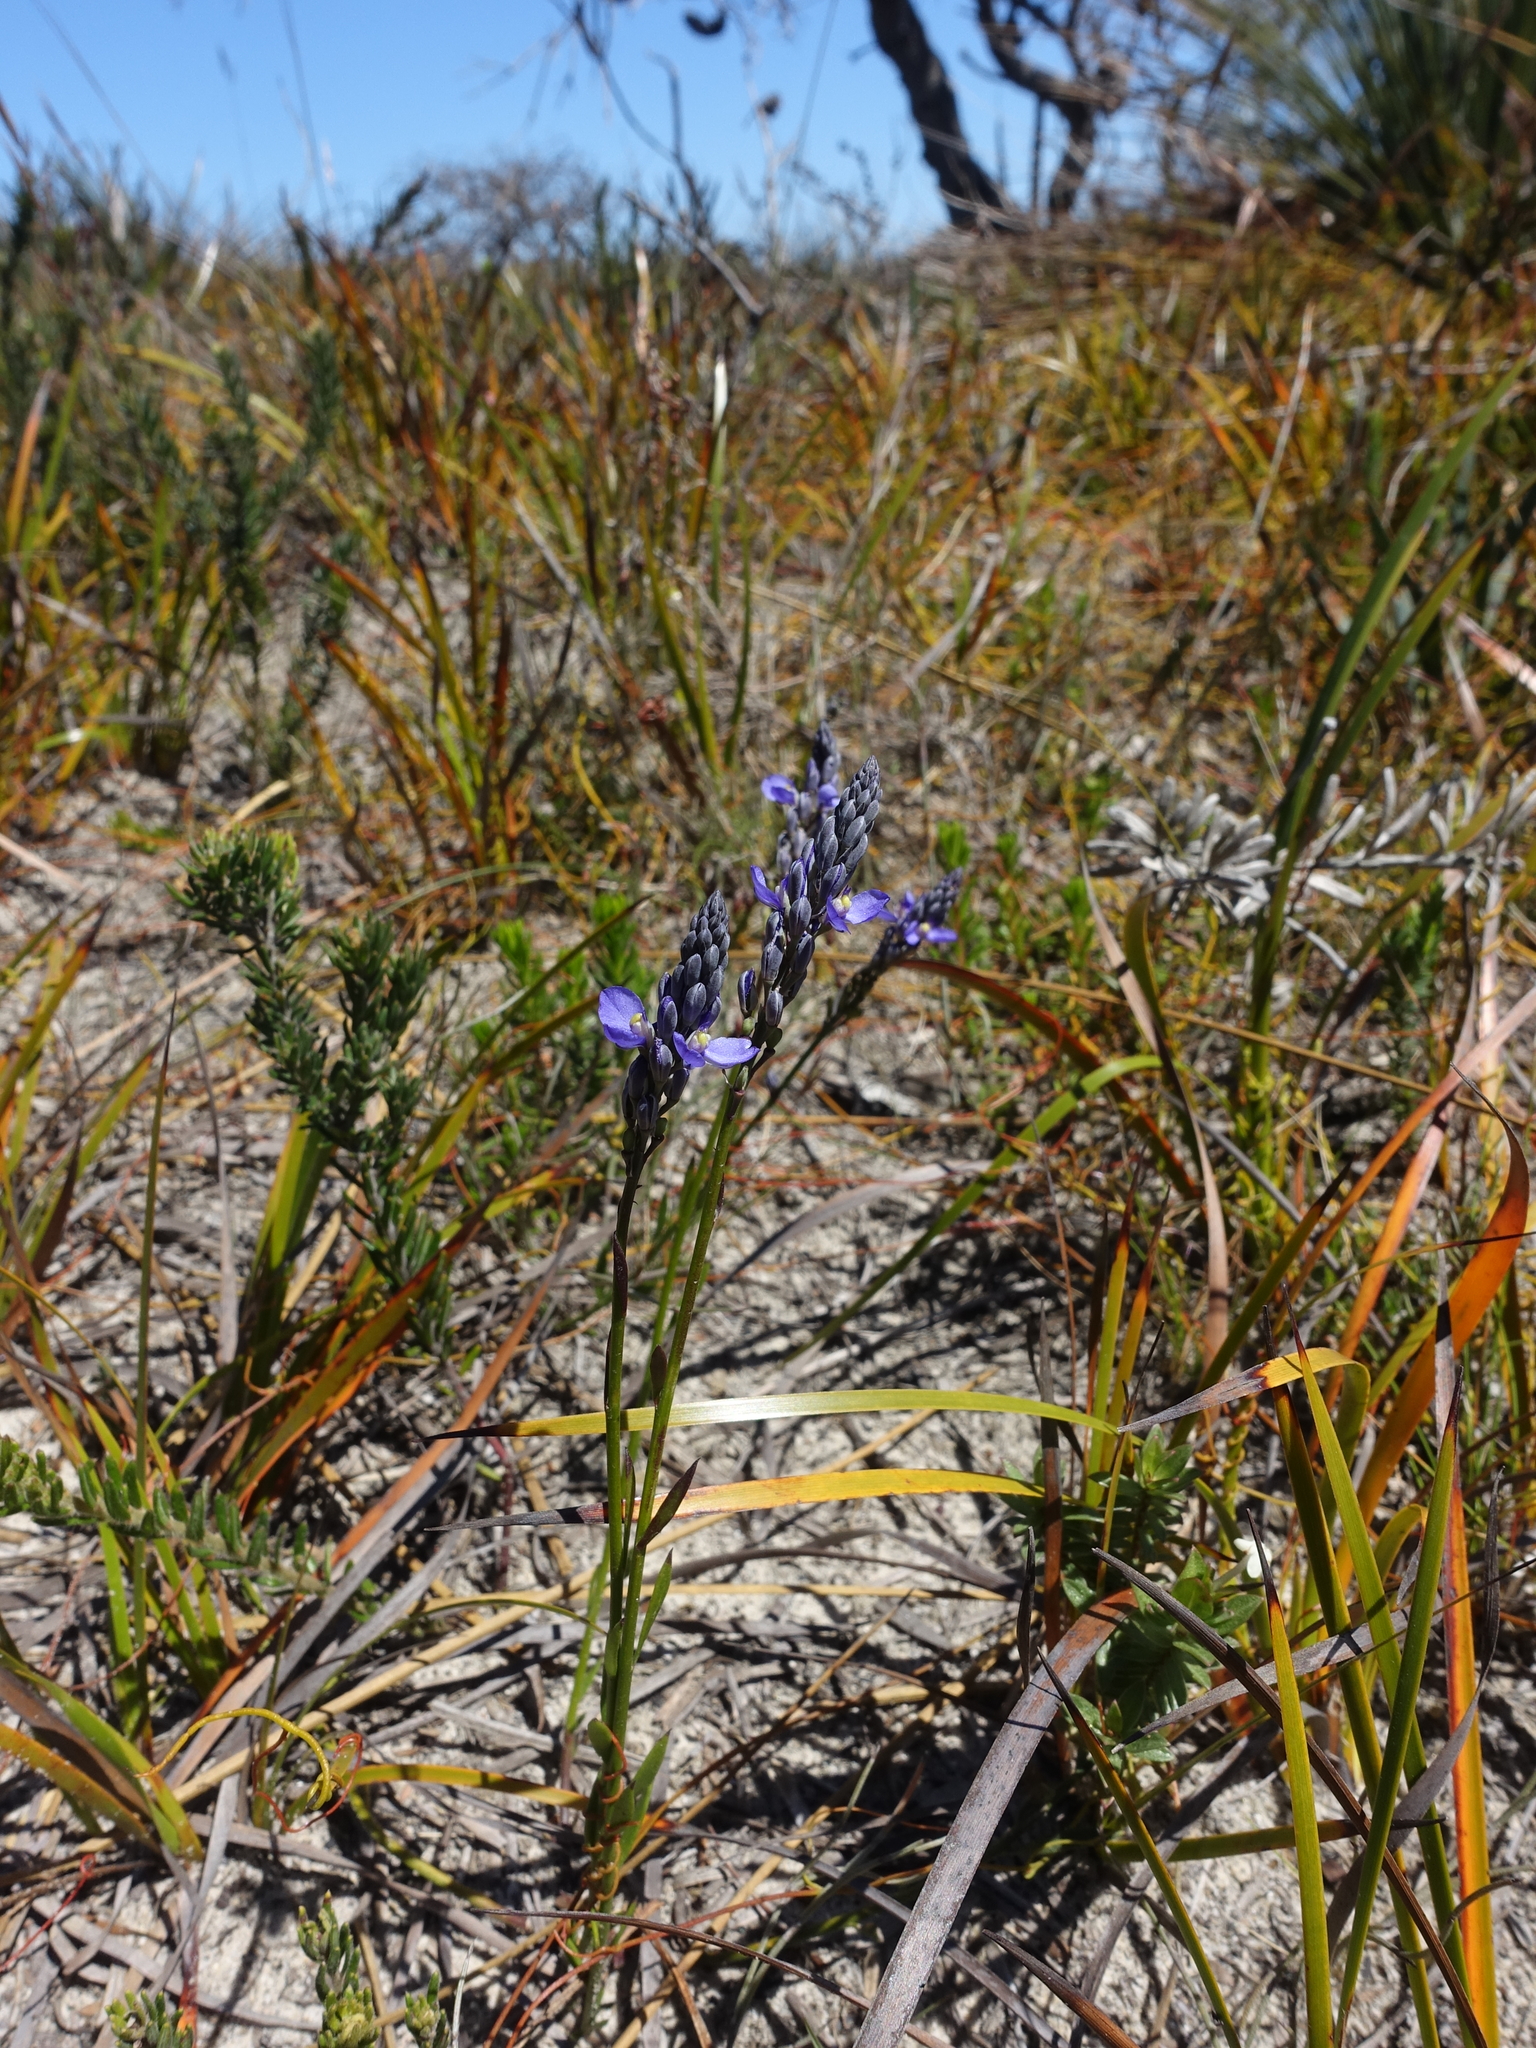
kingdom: Plantae
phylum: Tracheophyta
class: Magnoliopsida
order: Fabales
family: Polygalaceae
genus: Comesperma
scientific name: Comesperma calymega
